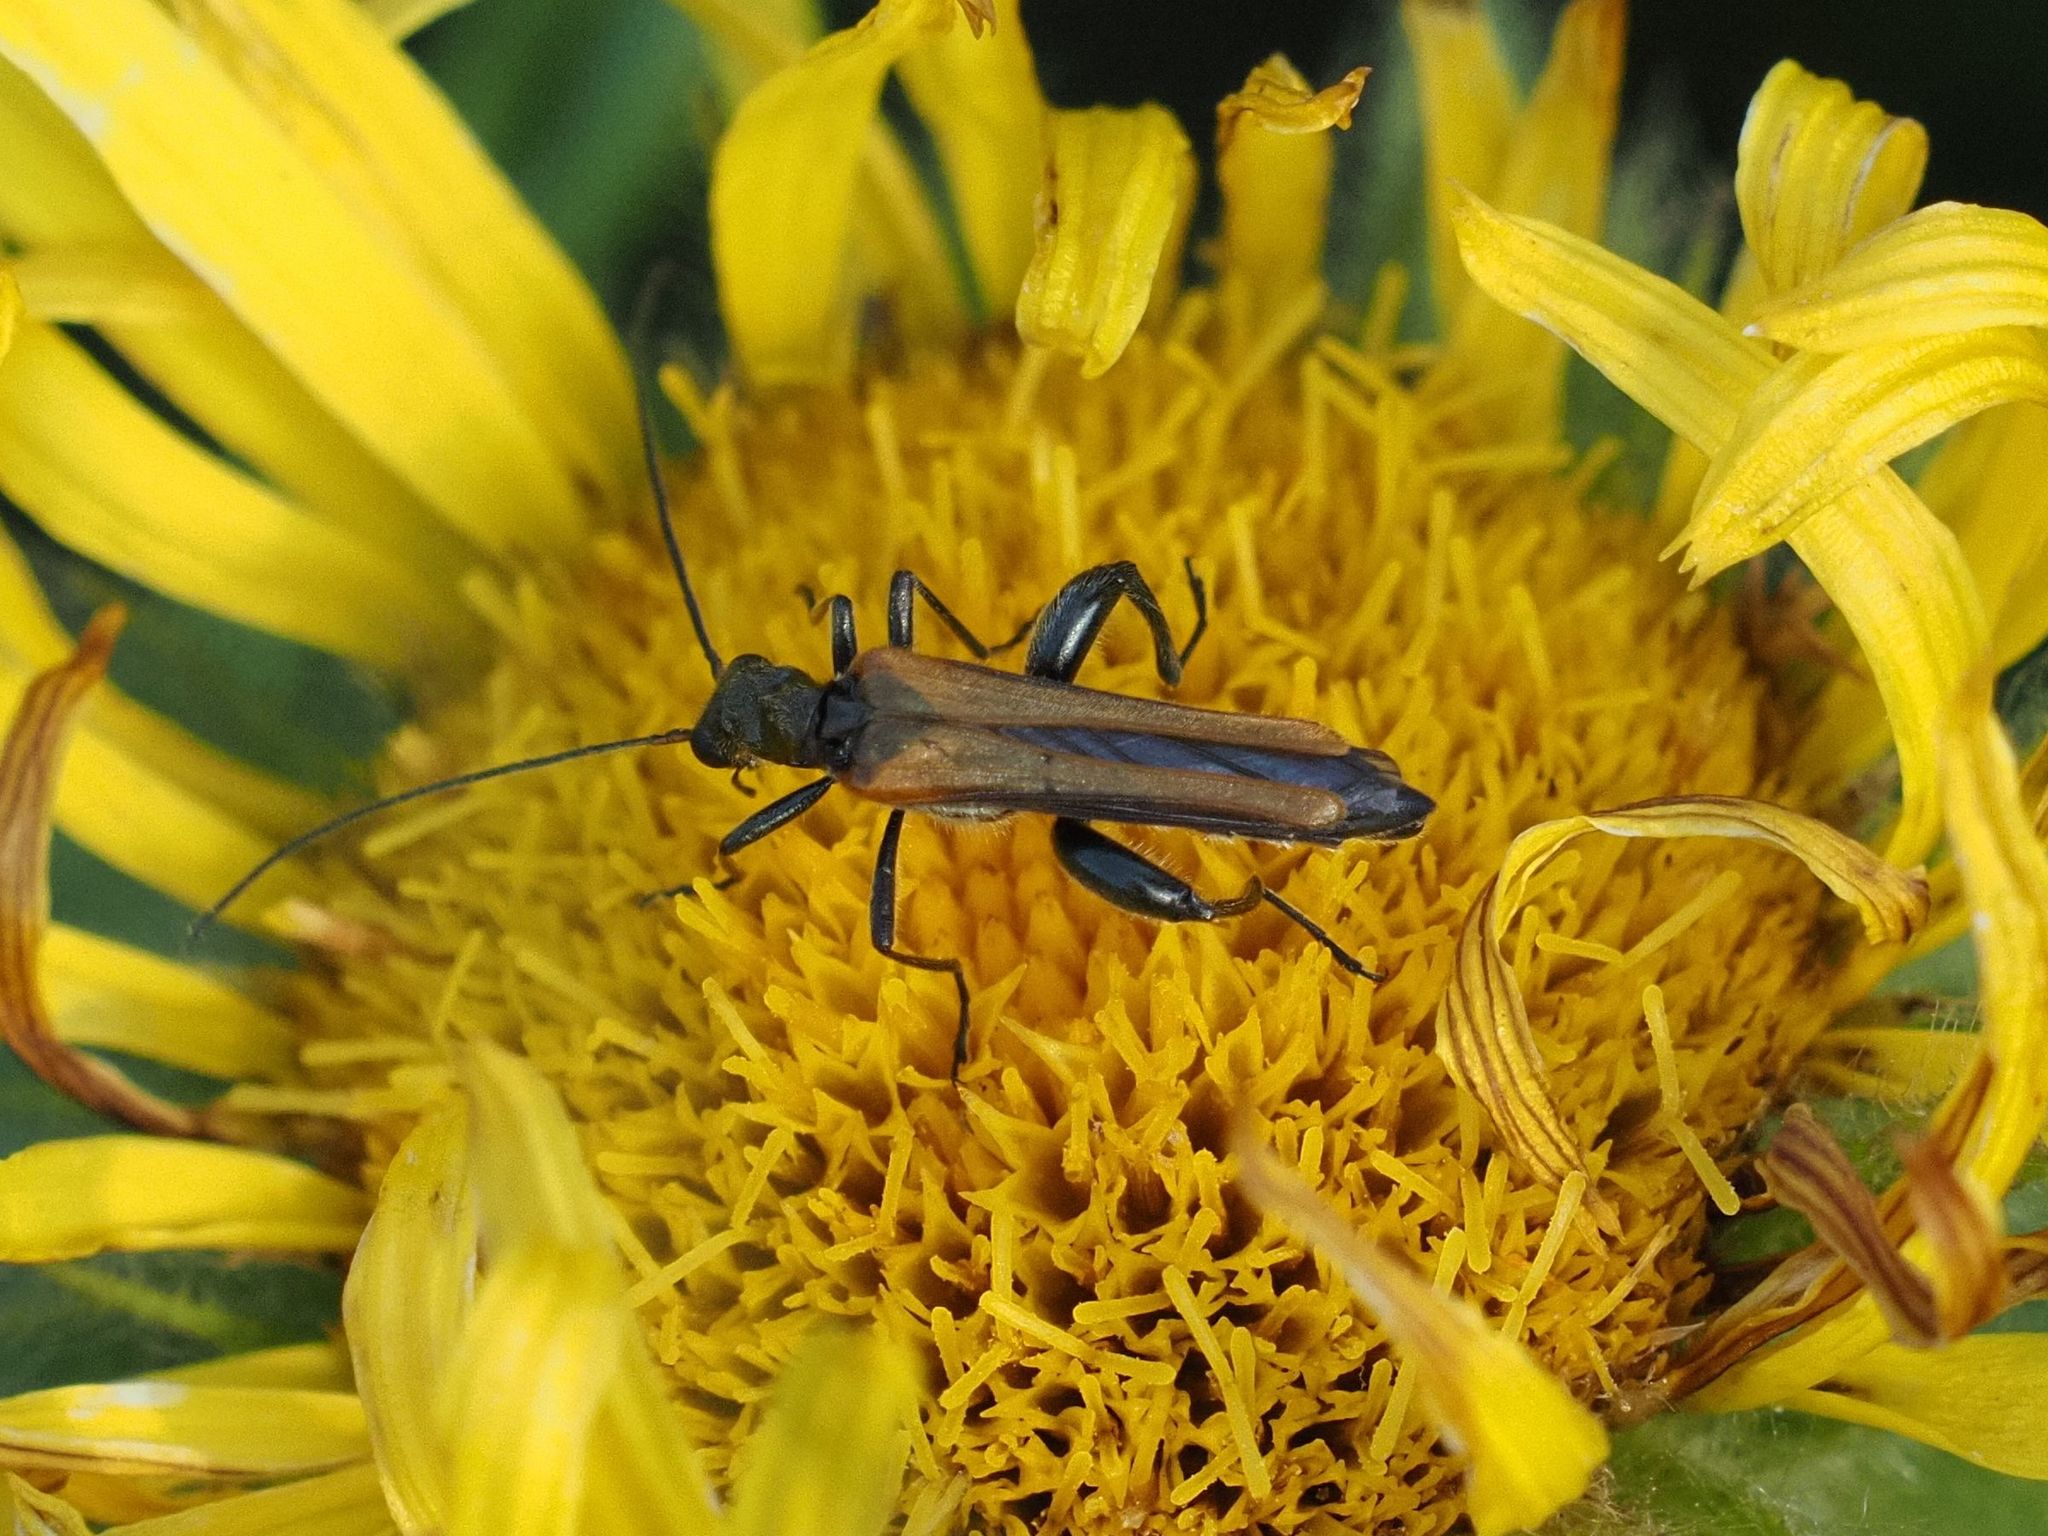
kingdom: Animalia
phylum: Arthropoda
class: Insecta
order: Coleoptera
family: Oedemeridae
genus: Oedemera
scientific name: Oedemera femorata
